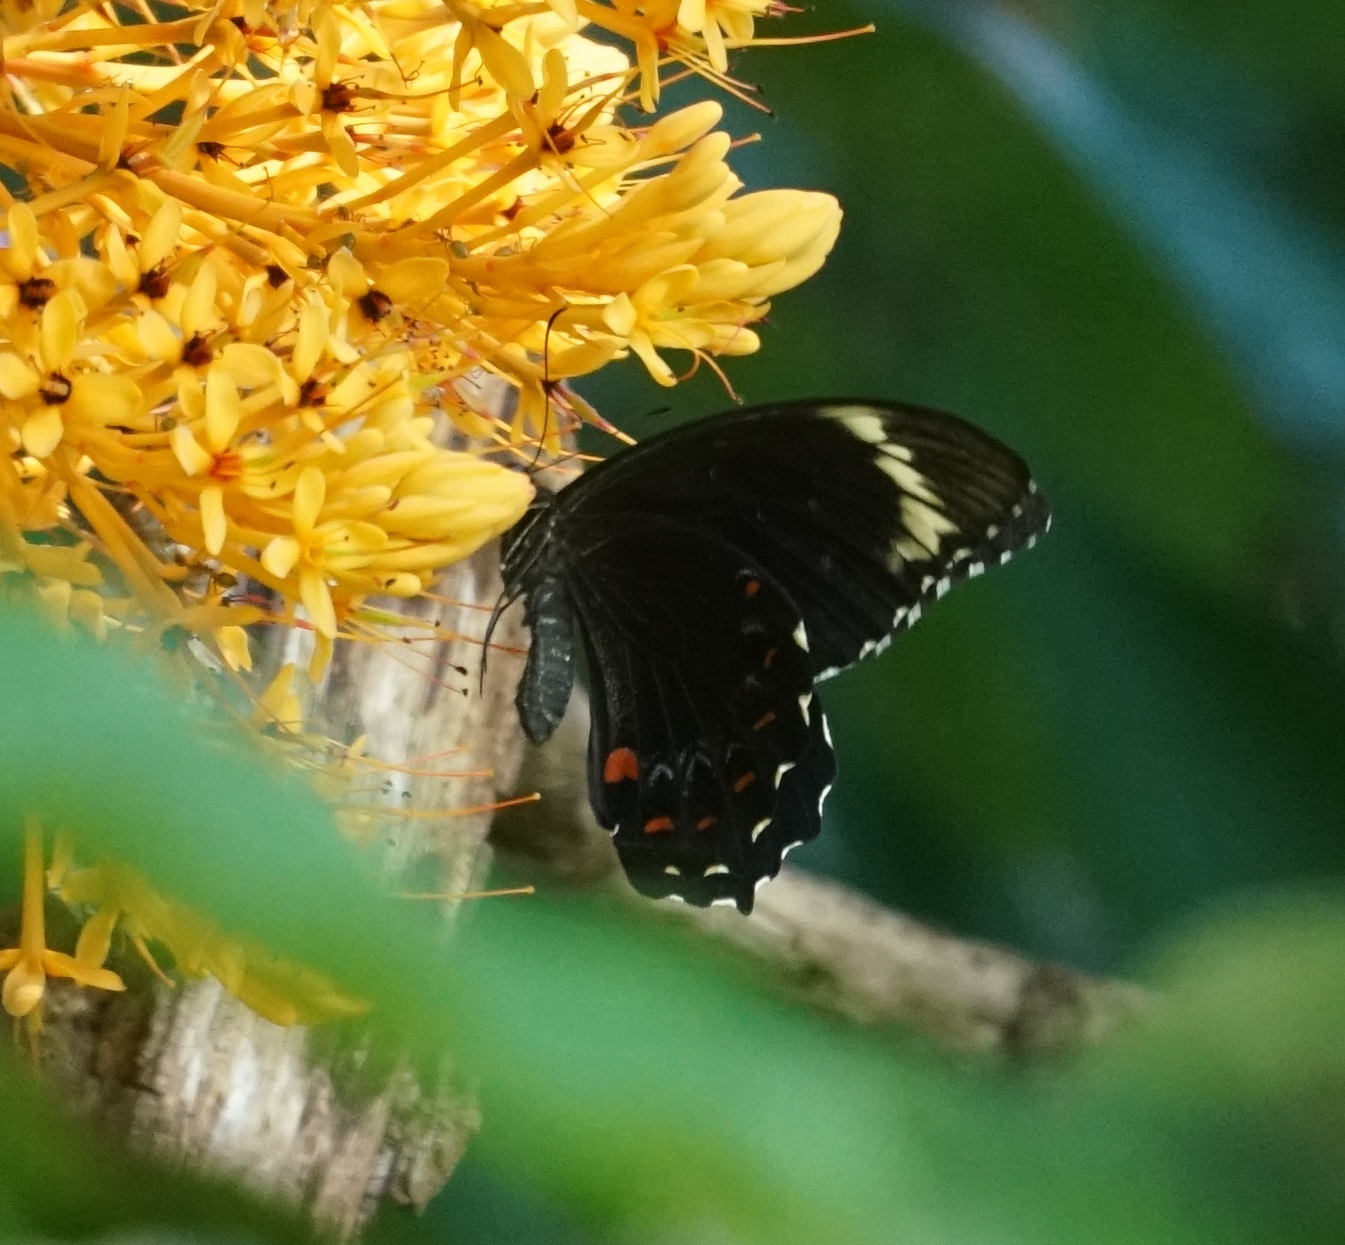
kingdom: Animalia
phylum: Arthropoda
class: Insecta
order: Lepidoptera
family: Papilionidae
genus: Papilio
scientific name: Papilio aegeus
